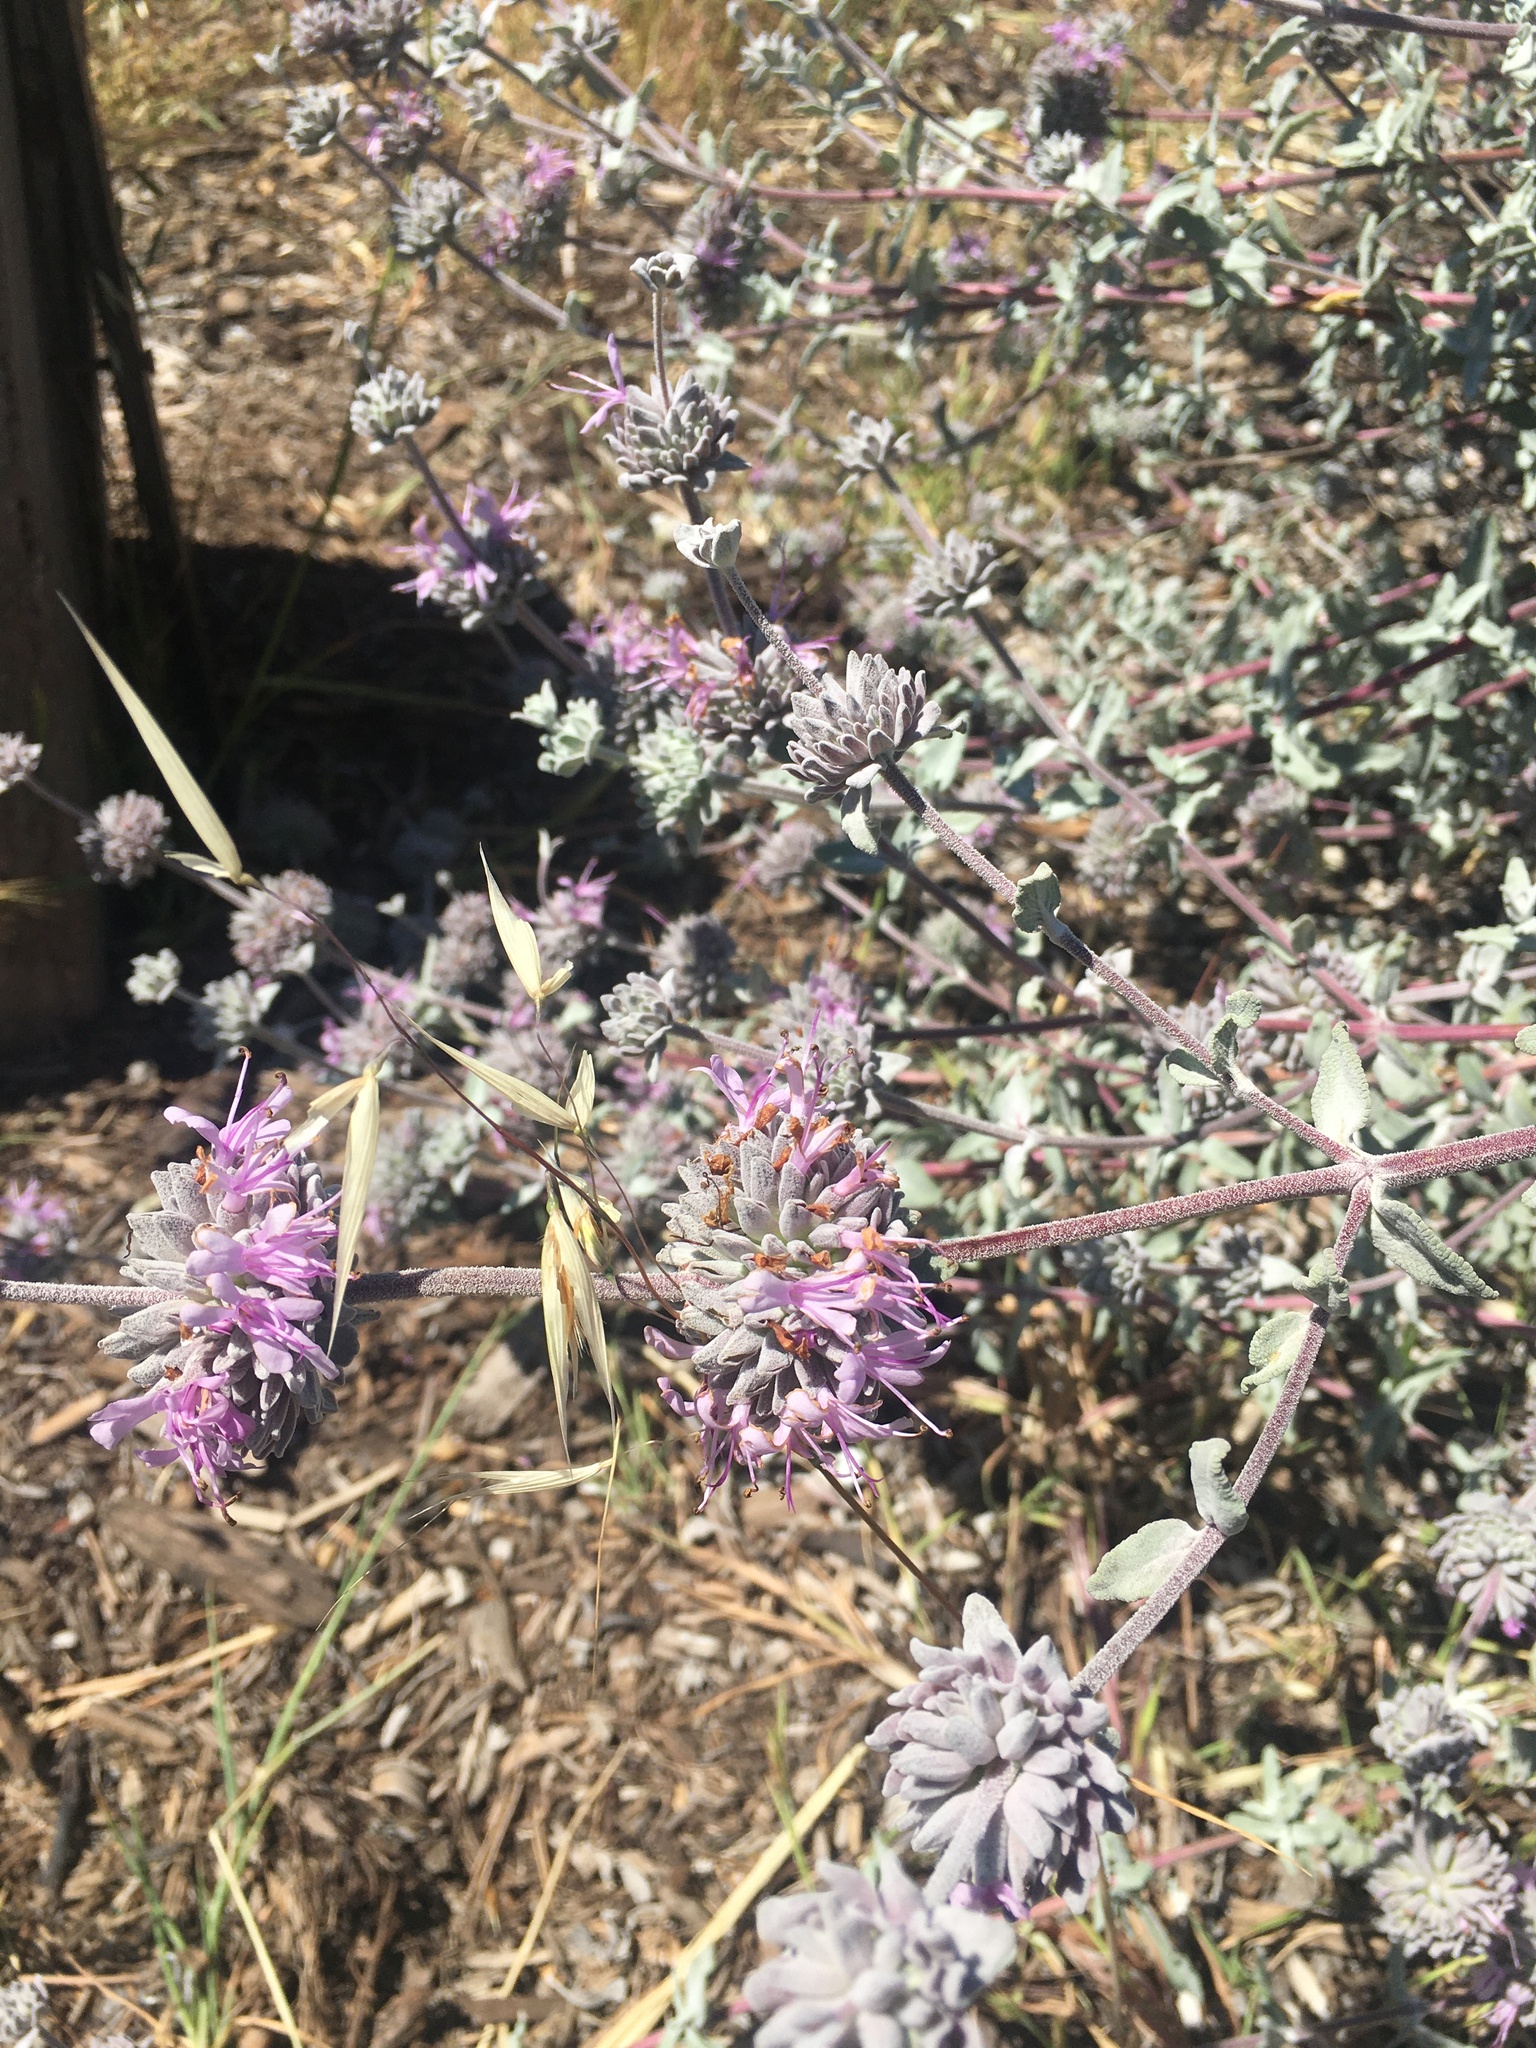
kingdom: Plantae
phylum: Tracheophyta
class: Magnoliopsida
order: Lamiales
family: Lamiaceae
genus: Salvia
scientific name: Salvia leucophylla
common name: Purple sage
